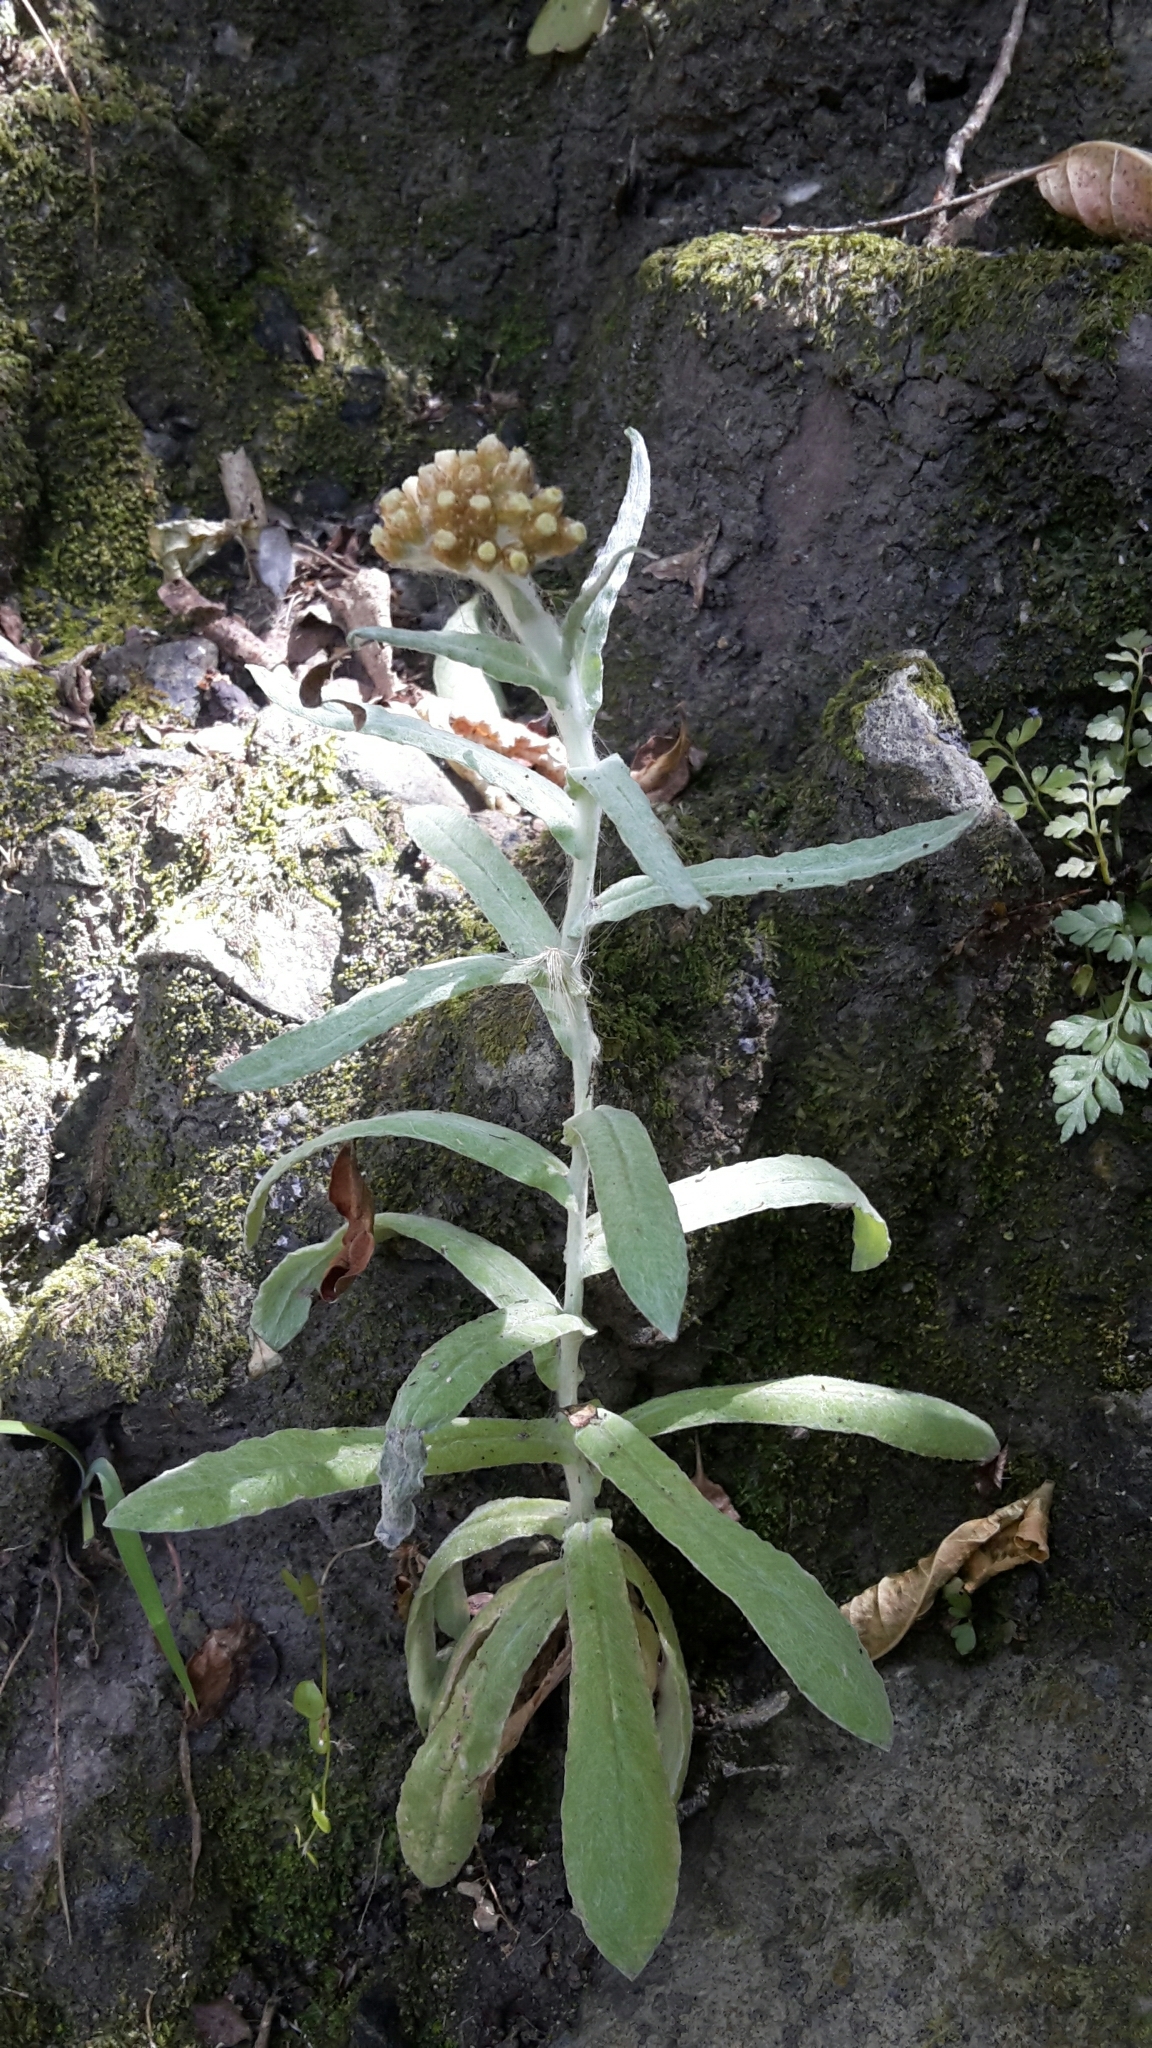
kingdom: Plantae
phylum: Tracheophyta
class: Magnoliopsida
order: Asterales
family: Asteraceae
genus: Helichrysum
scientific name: Helichrysum luteoalbum
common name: Daisy
